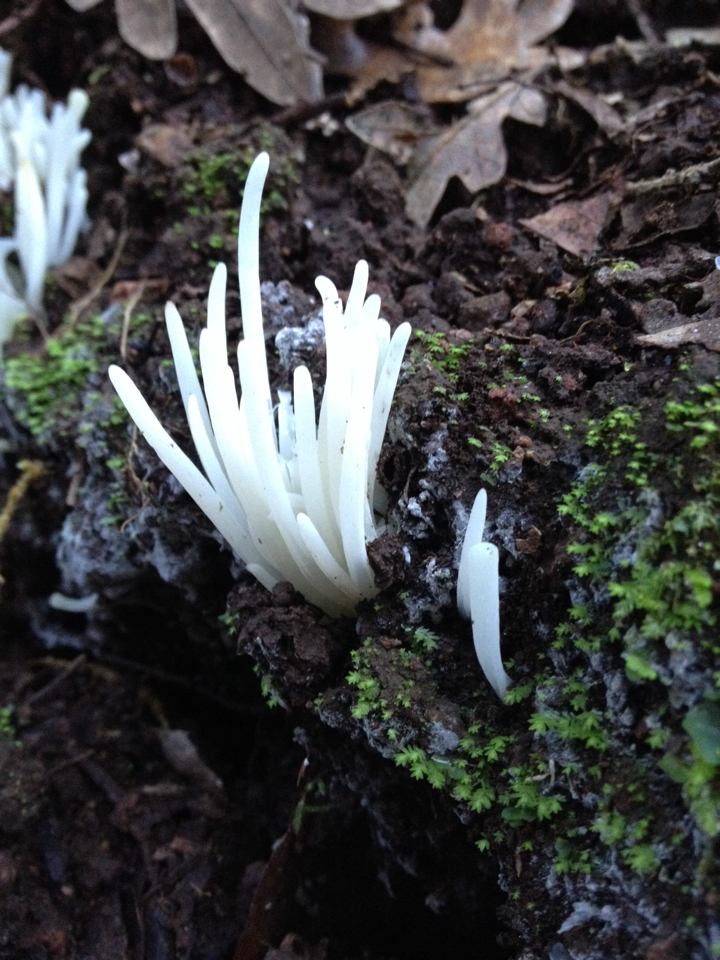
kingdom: Fungi
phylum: Basidiomycota
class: Agaricomycetes
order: Agaricales
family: Clavariaceae
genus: Clavaria
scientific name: Clavaria fragilis
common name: White spindles
